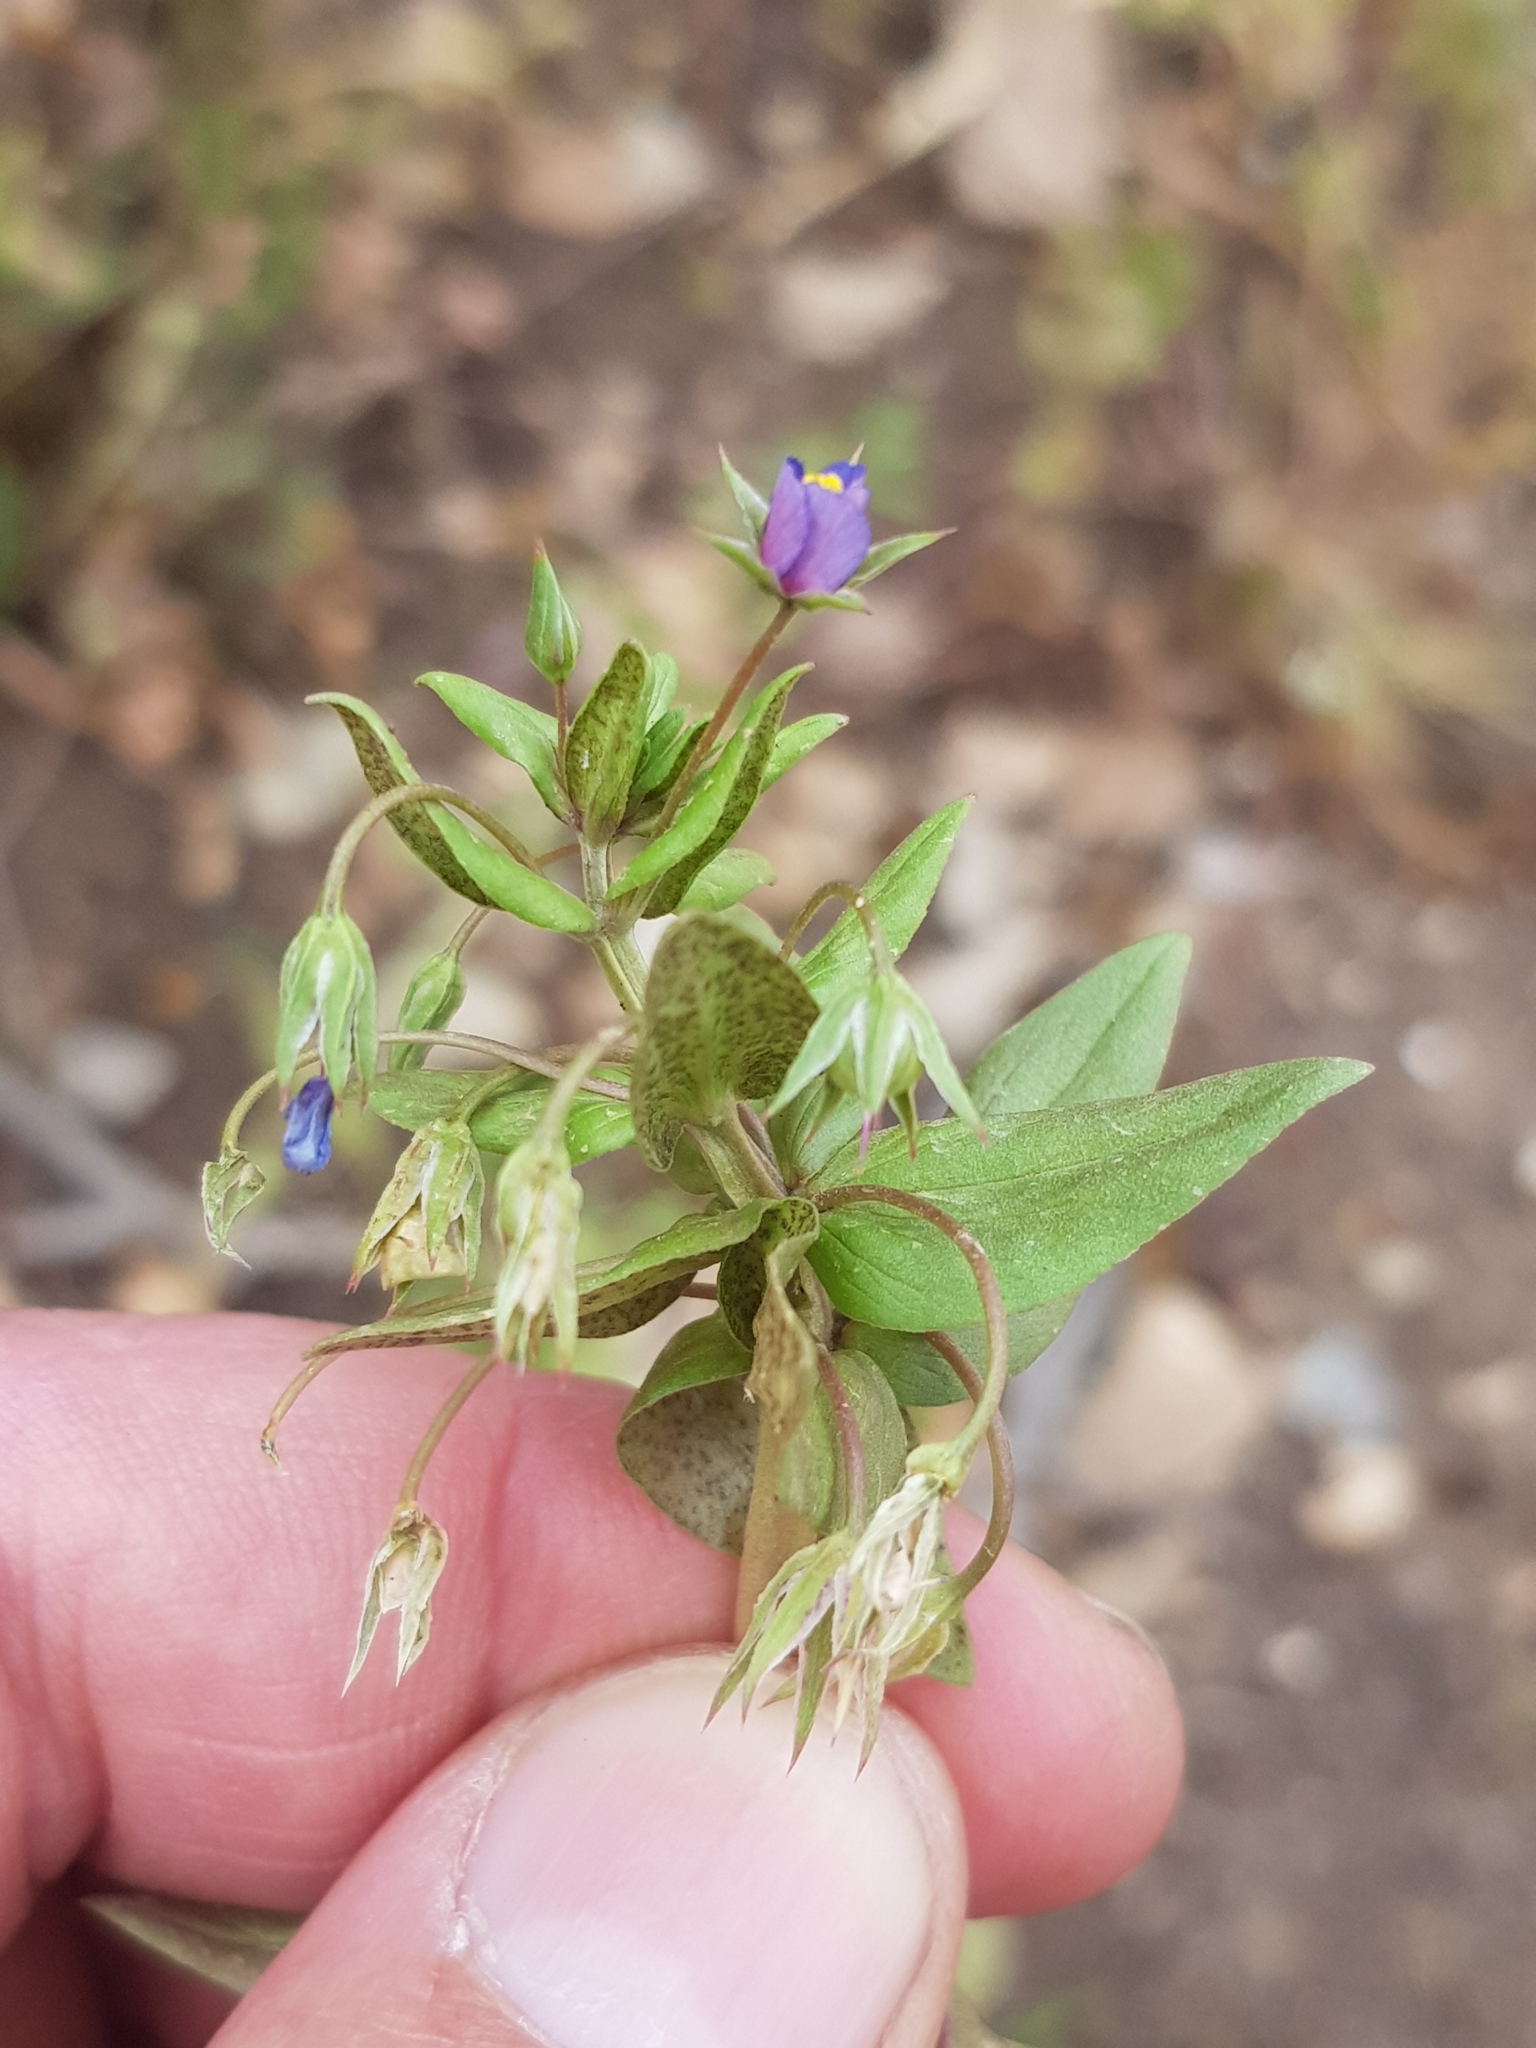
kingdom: Plantae
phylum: Tracheophyta
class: Magnoliopsida
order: Ericales
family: Primulaceae
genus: Lysimachia
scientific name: Lysimachia monelli
